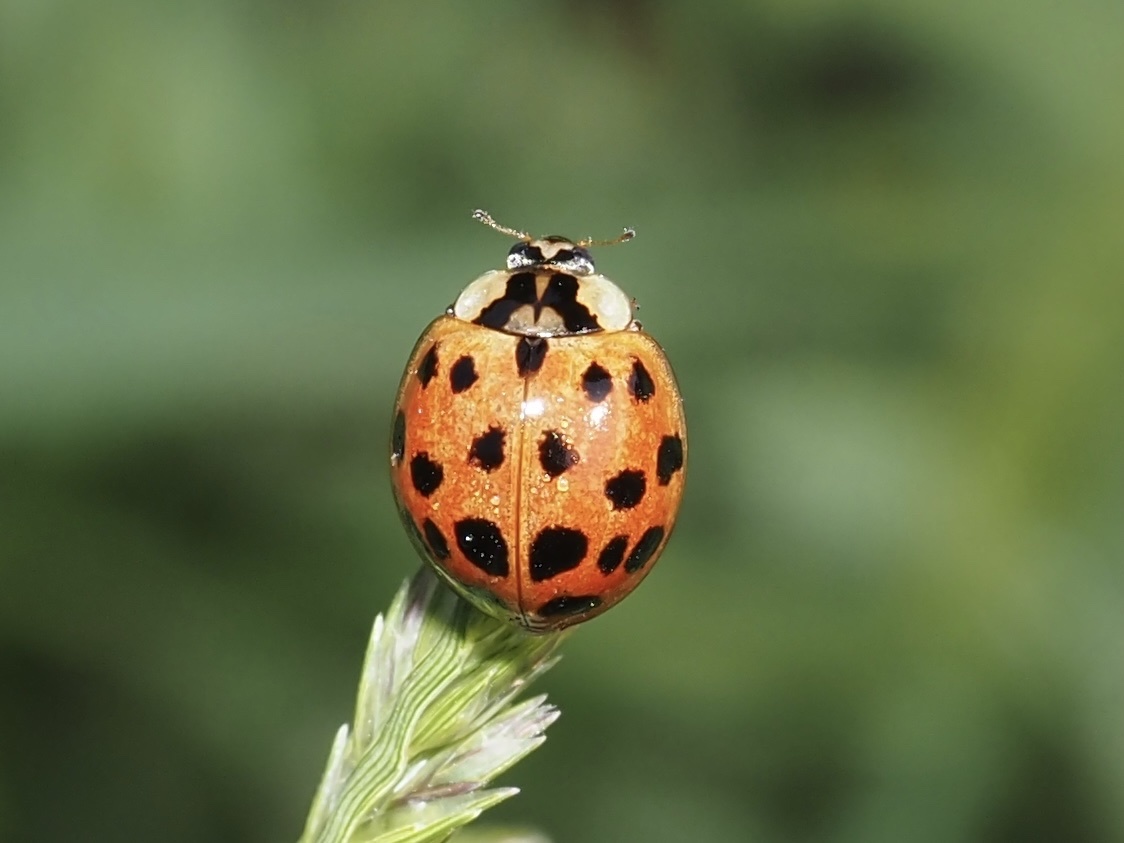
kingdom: Animalia
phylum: Arthropoda
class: Insecta
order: Coleoptera
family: Coccinellidae
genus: Harmonia
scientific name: Harmonia axyridis
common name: Harlequin ladybird
